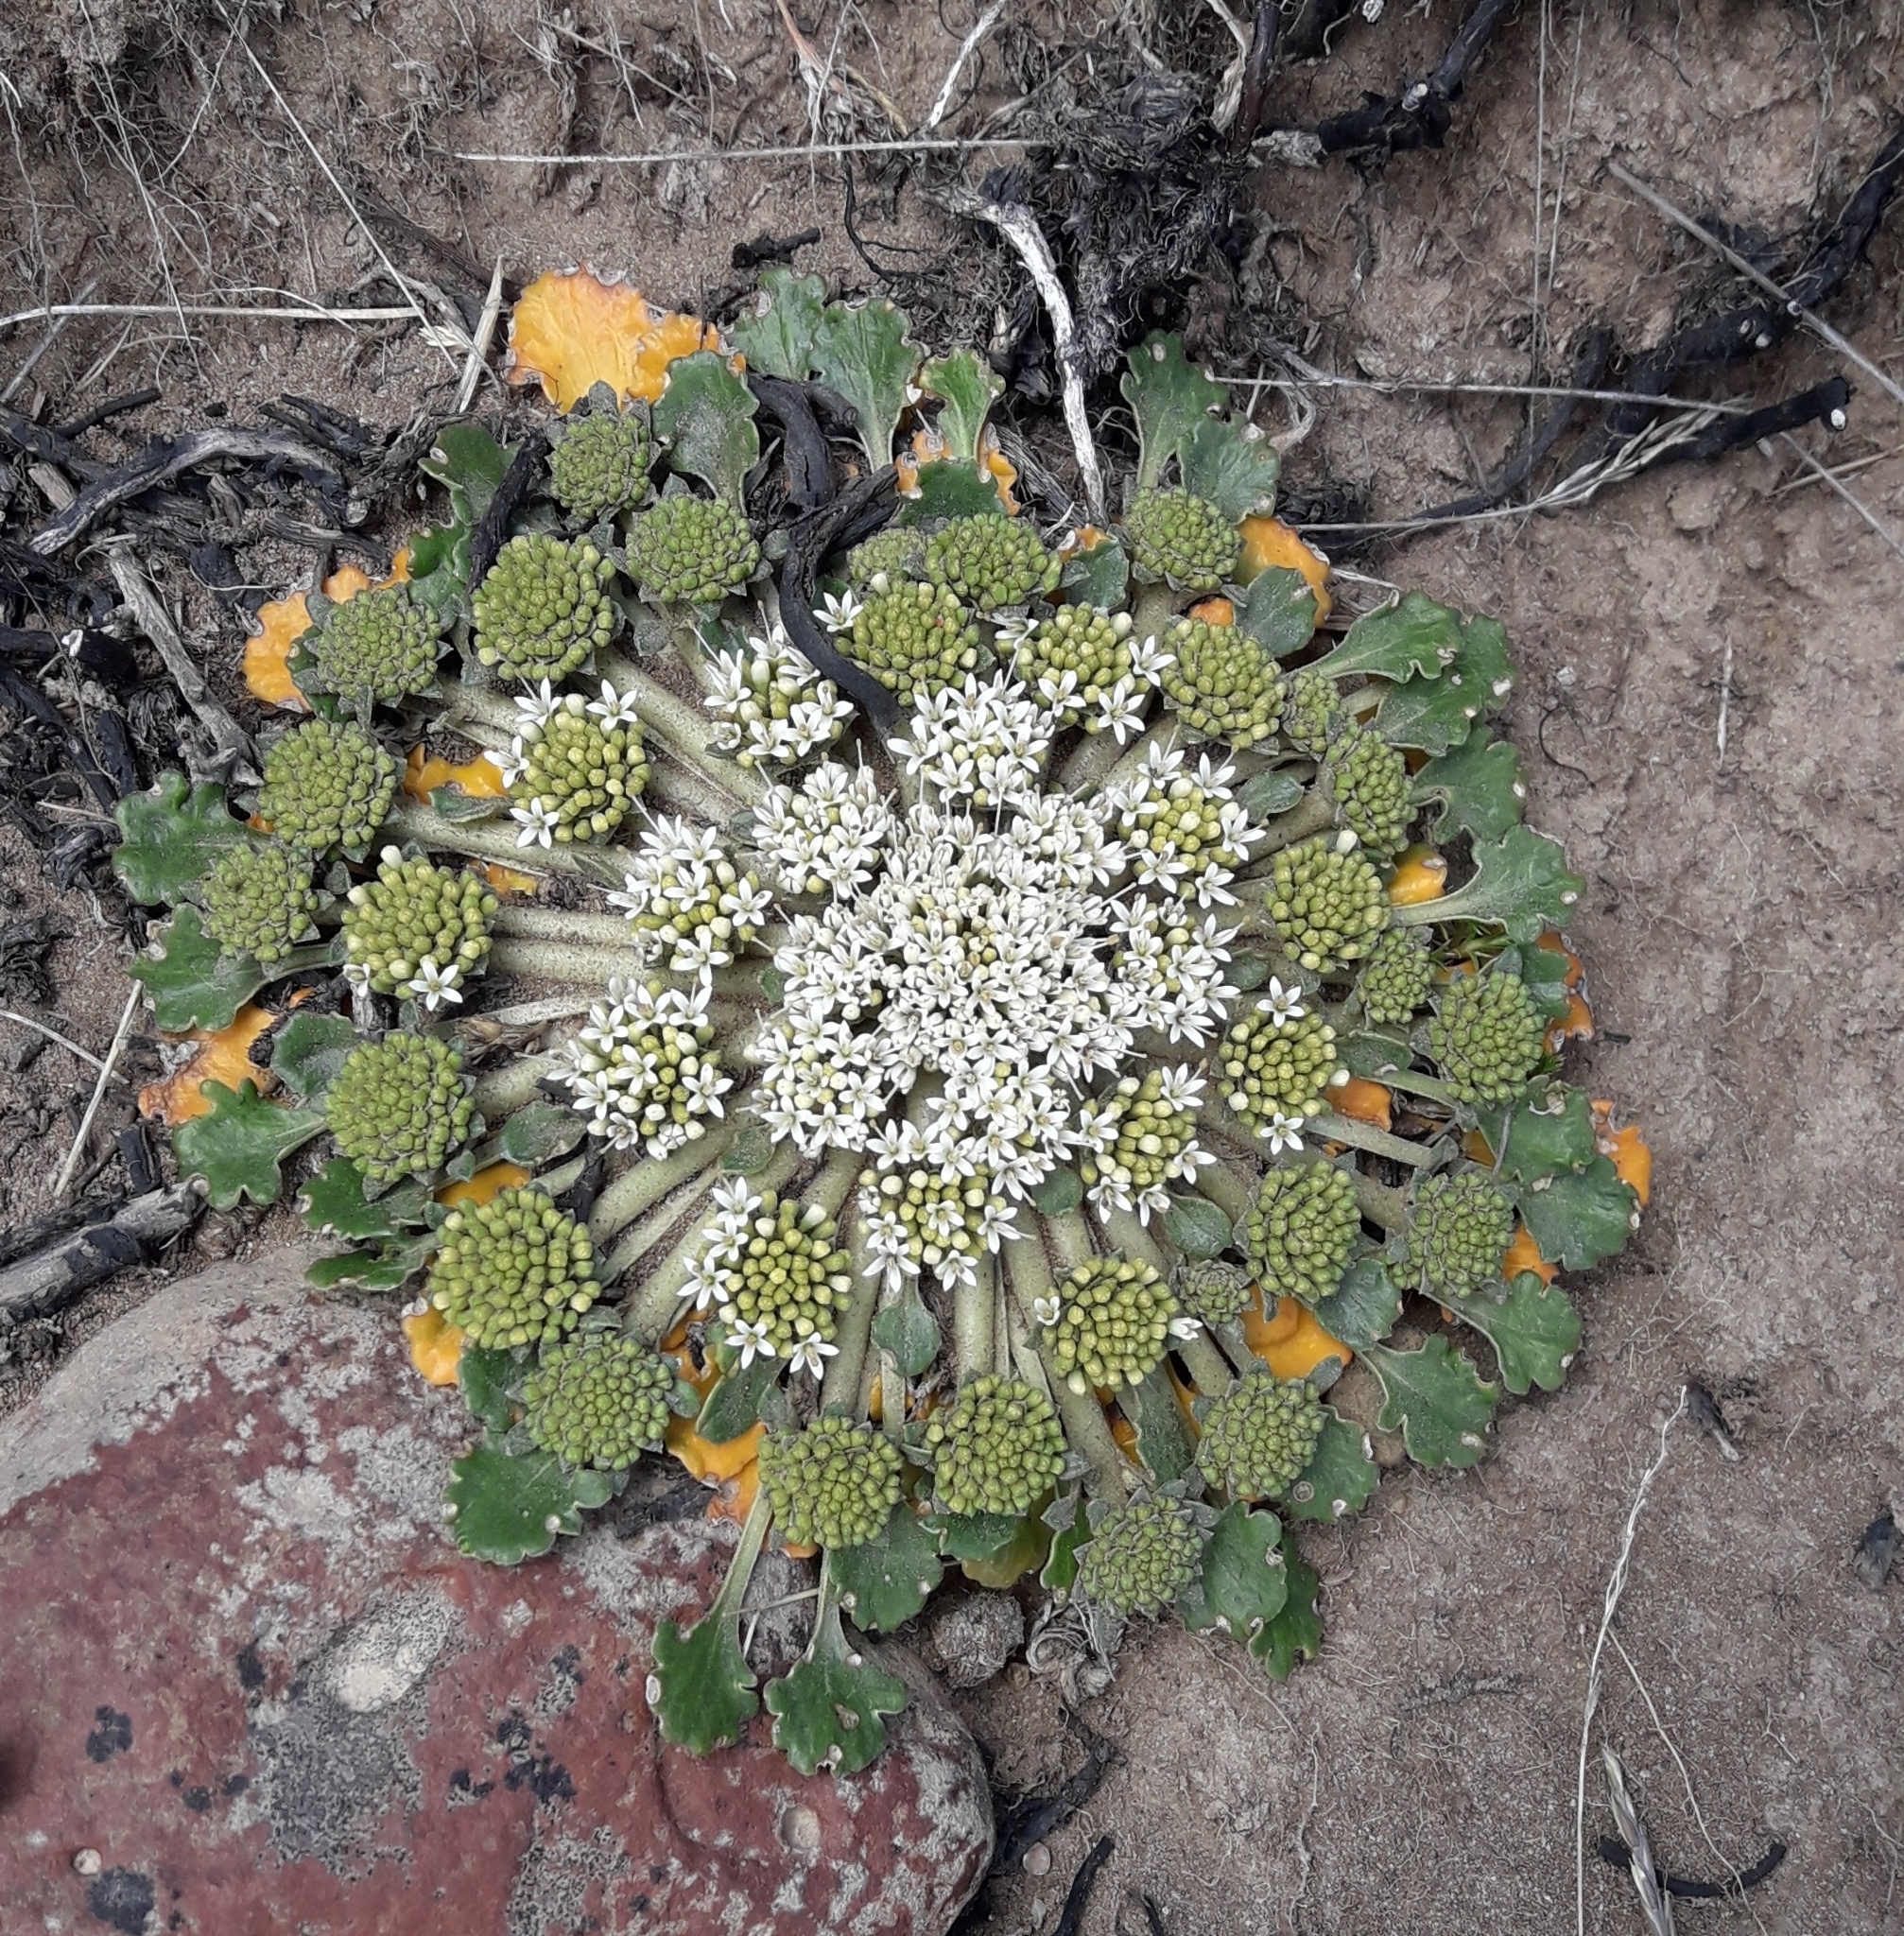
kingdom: Plantae
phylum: Tracheophyta
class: Magnoliopsida
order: Asterales
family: Calyceraceae
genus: Gamocarpha
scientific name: Gamocarpha selliana
